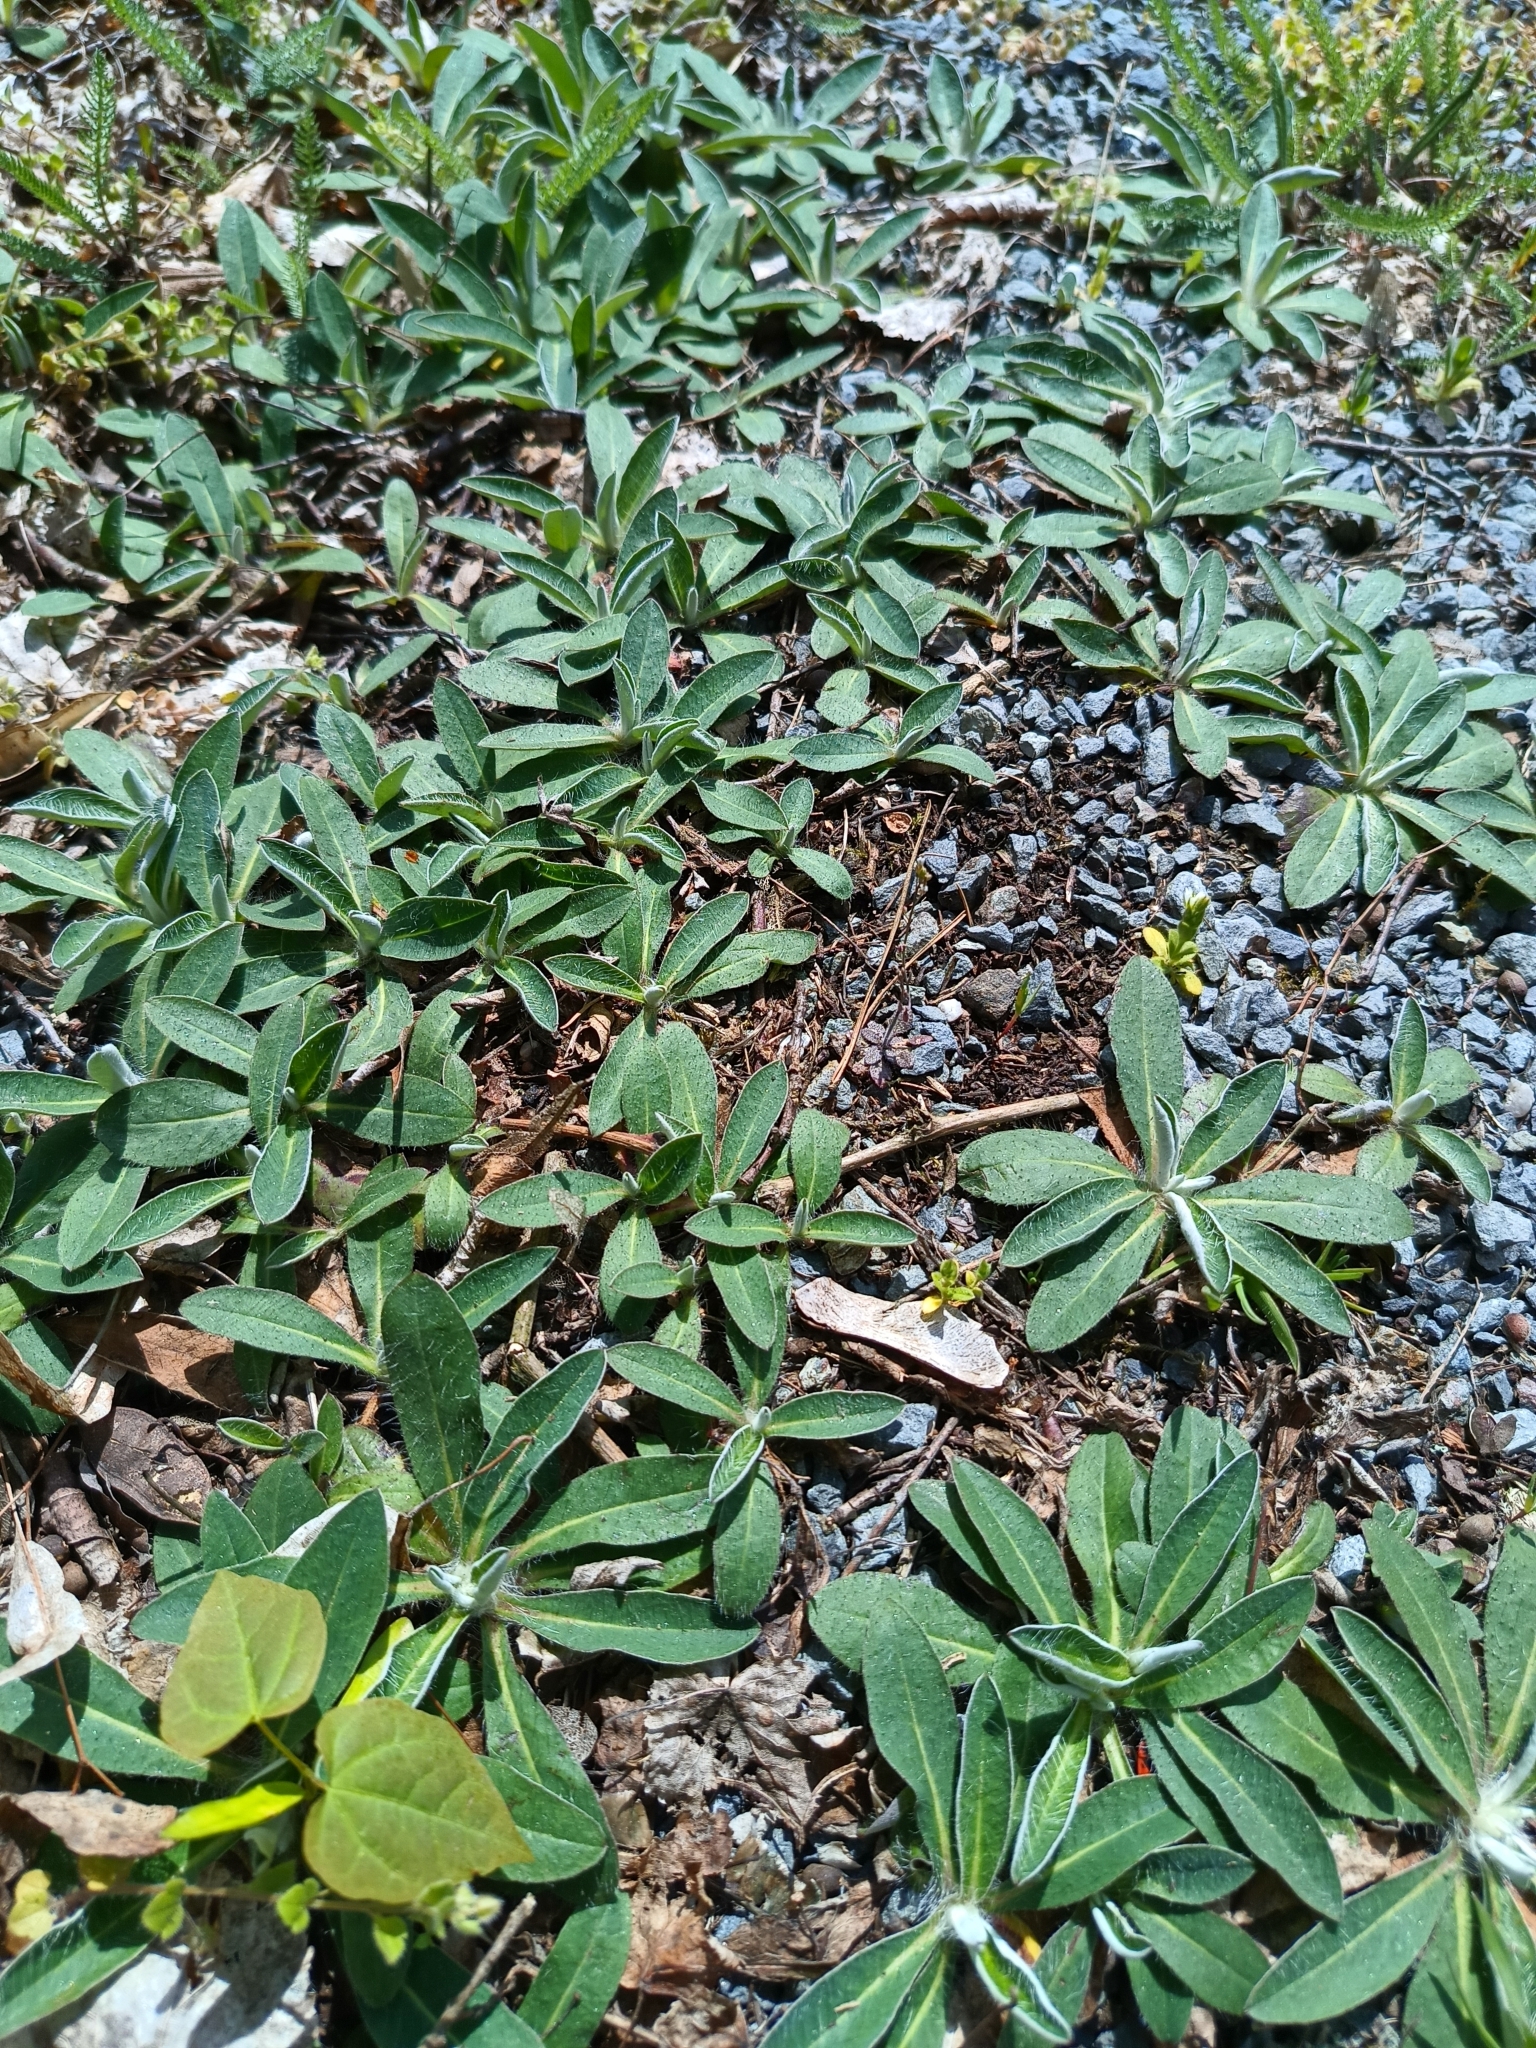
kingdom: Plantae
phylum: Tracheophyta
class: Magnoliopsida
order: Asterales
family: Asteraceae
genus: Pilosella
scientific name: Pilosella officinarum
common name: Mouse-ear hawkweed
